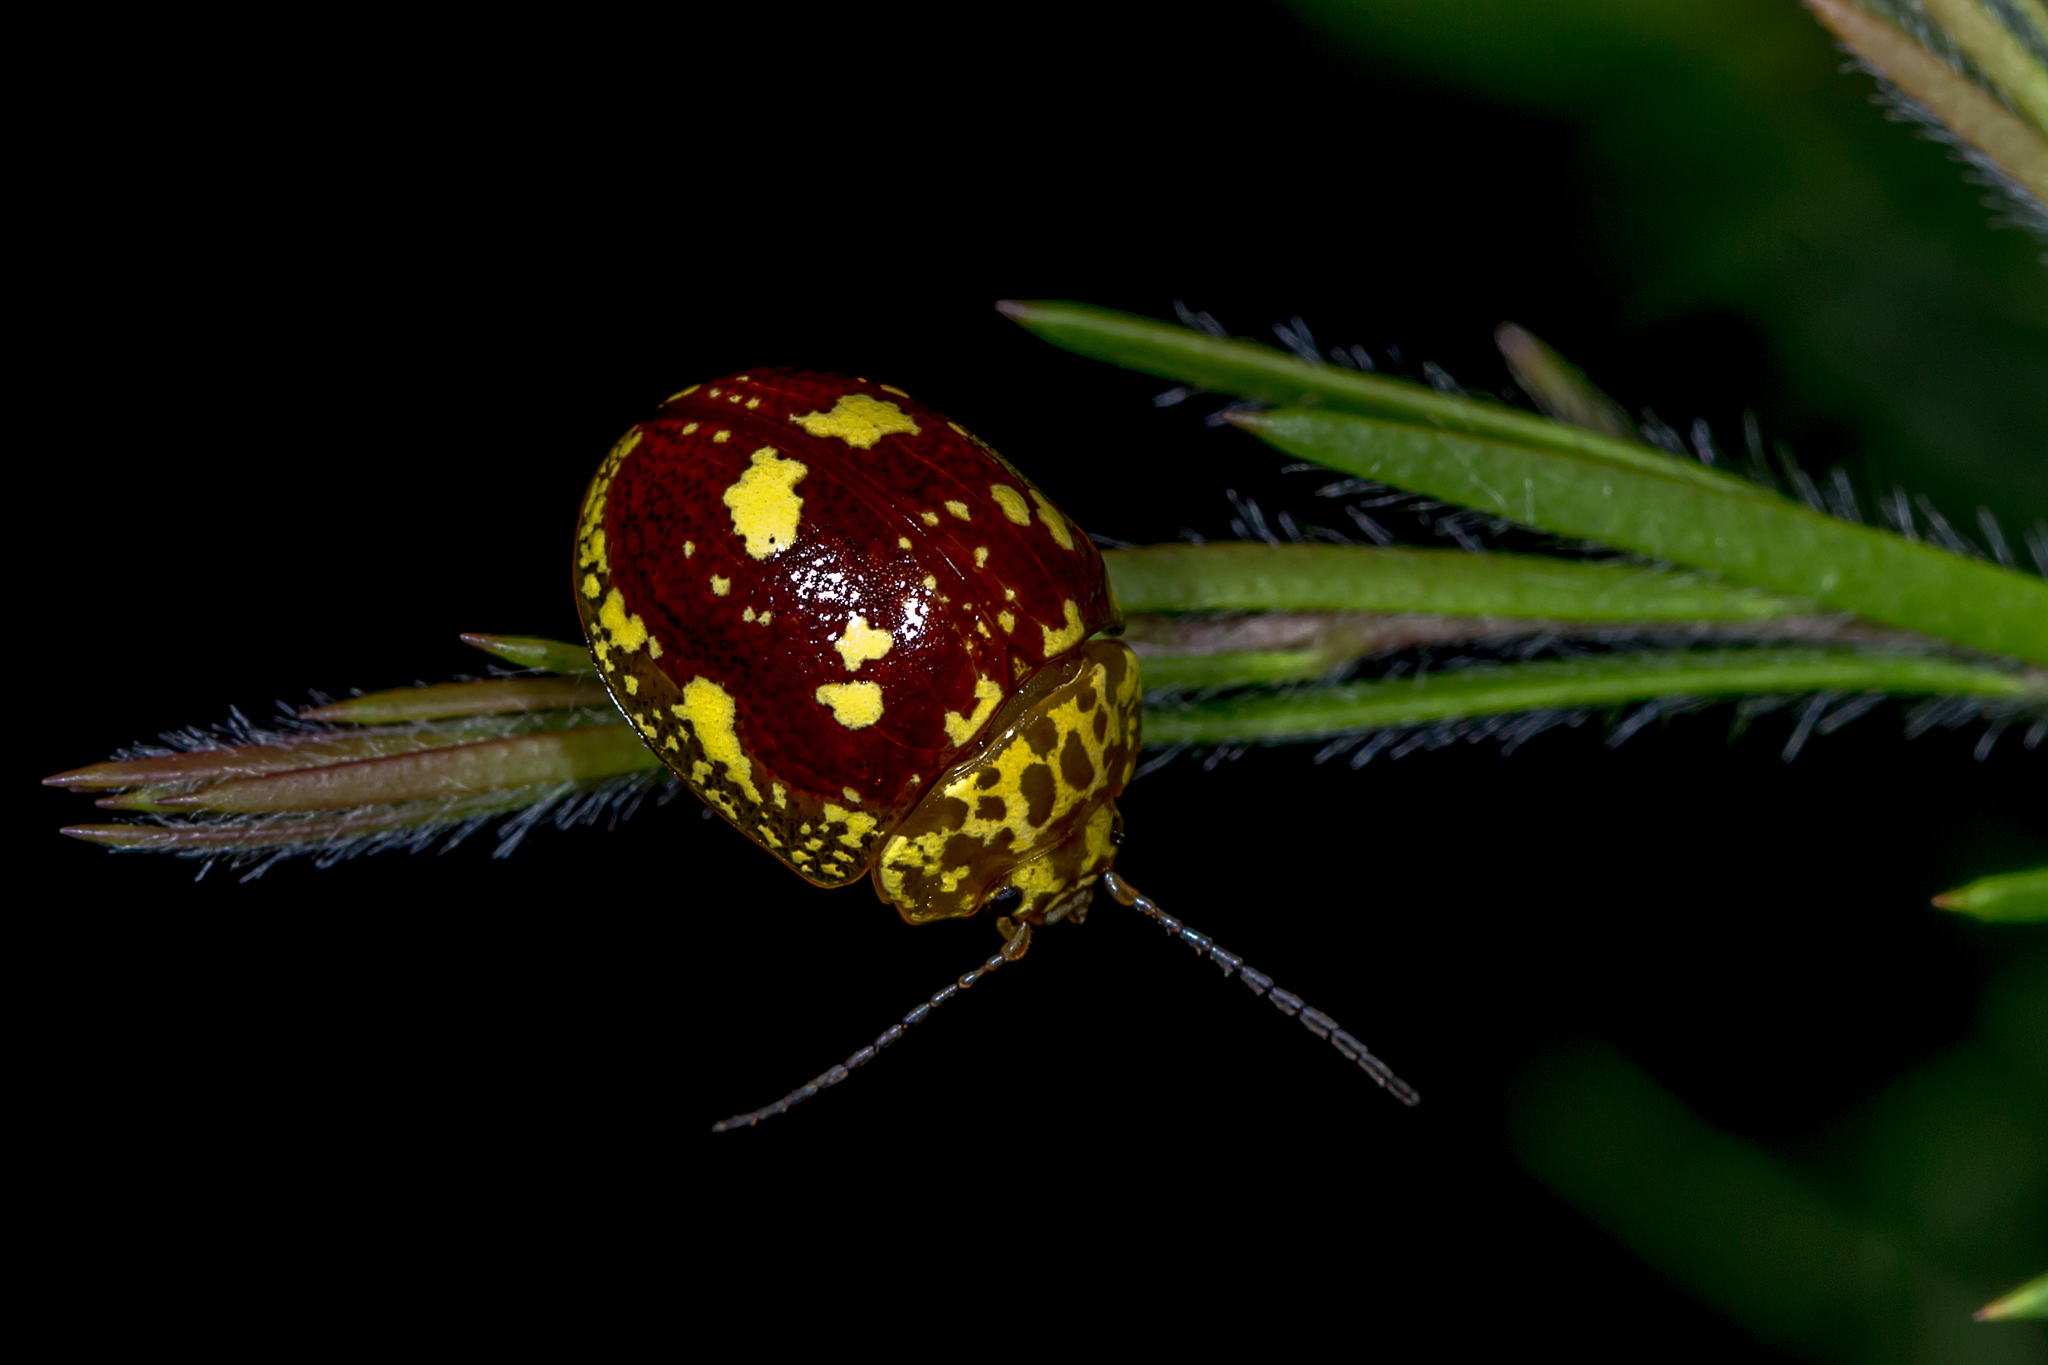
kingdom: Animalia
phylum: Arthropoda
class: Insecta
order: Coleoptera
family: Chrysomelidae
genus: Paropsis
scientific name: Paropsis maculata
